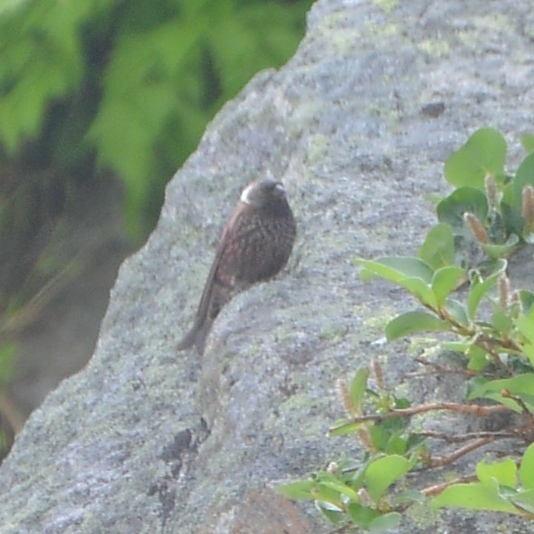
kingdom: Animalia
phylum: Chordata
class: Aves
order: Passeriformes
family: Fringillidae
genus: Leucosticte
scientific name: Leucosticte arctoa
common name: Asian rosy finch
